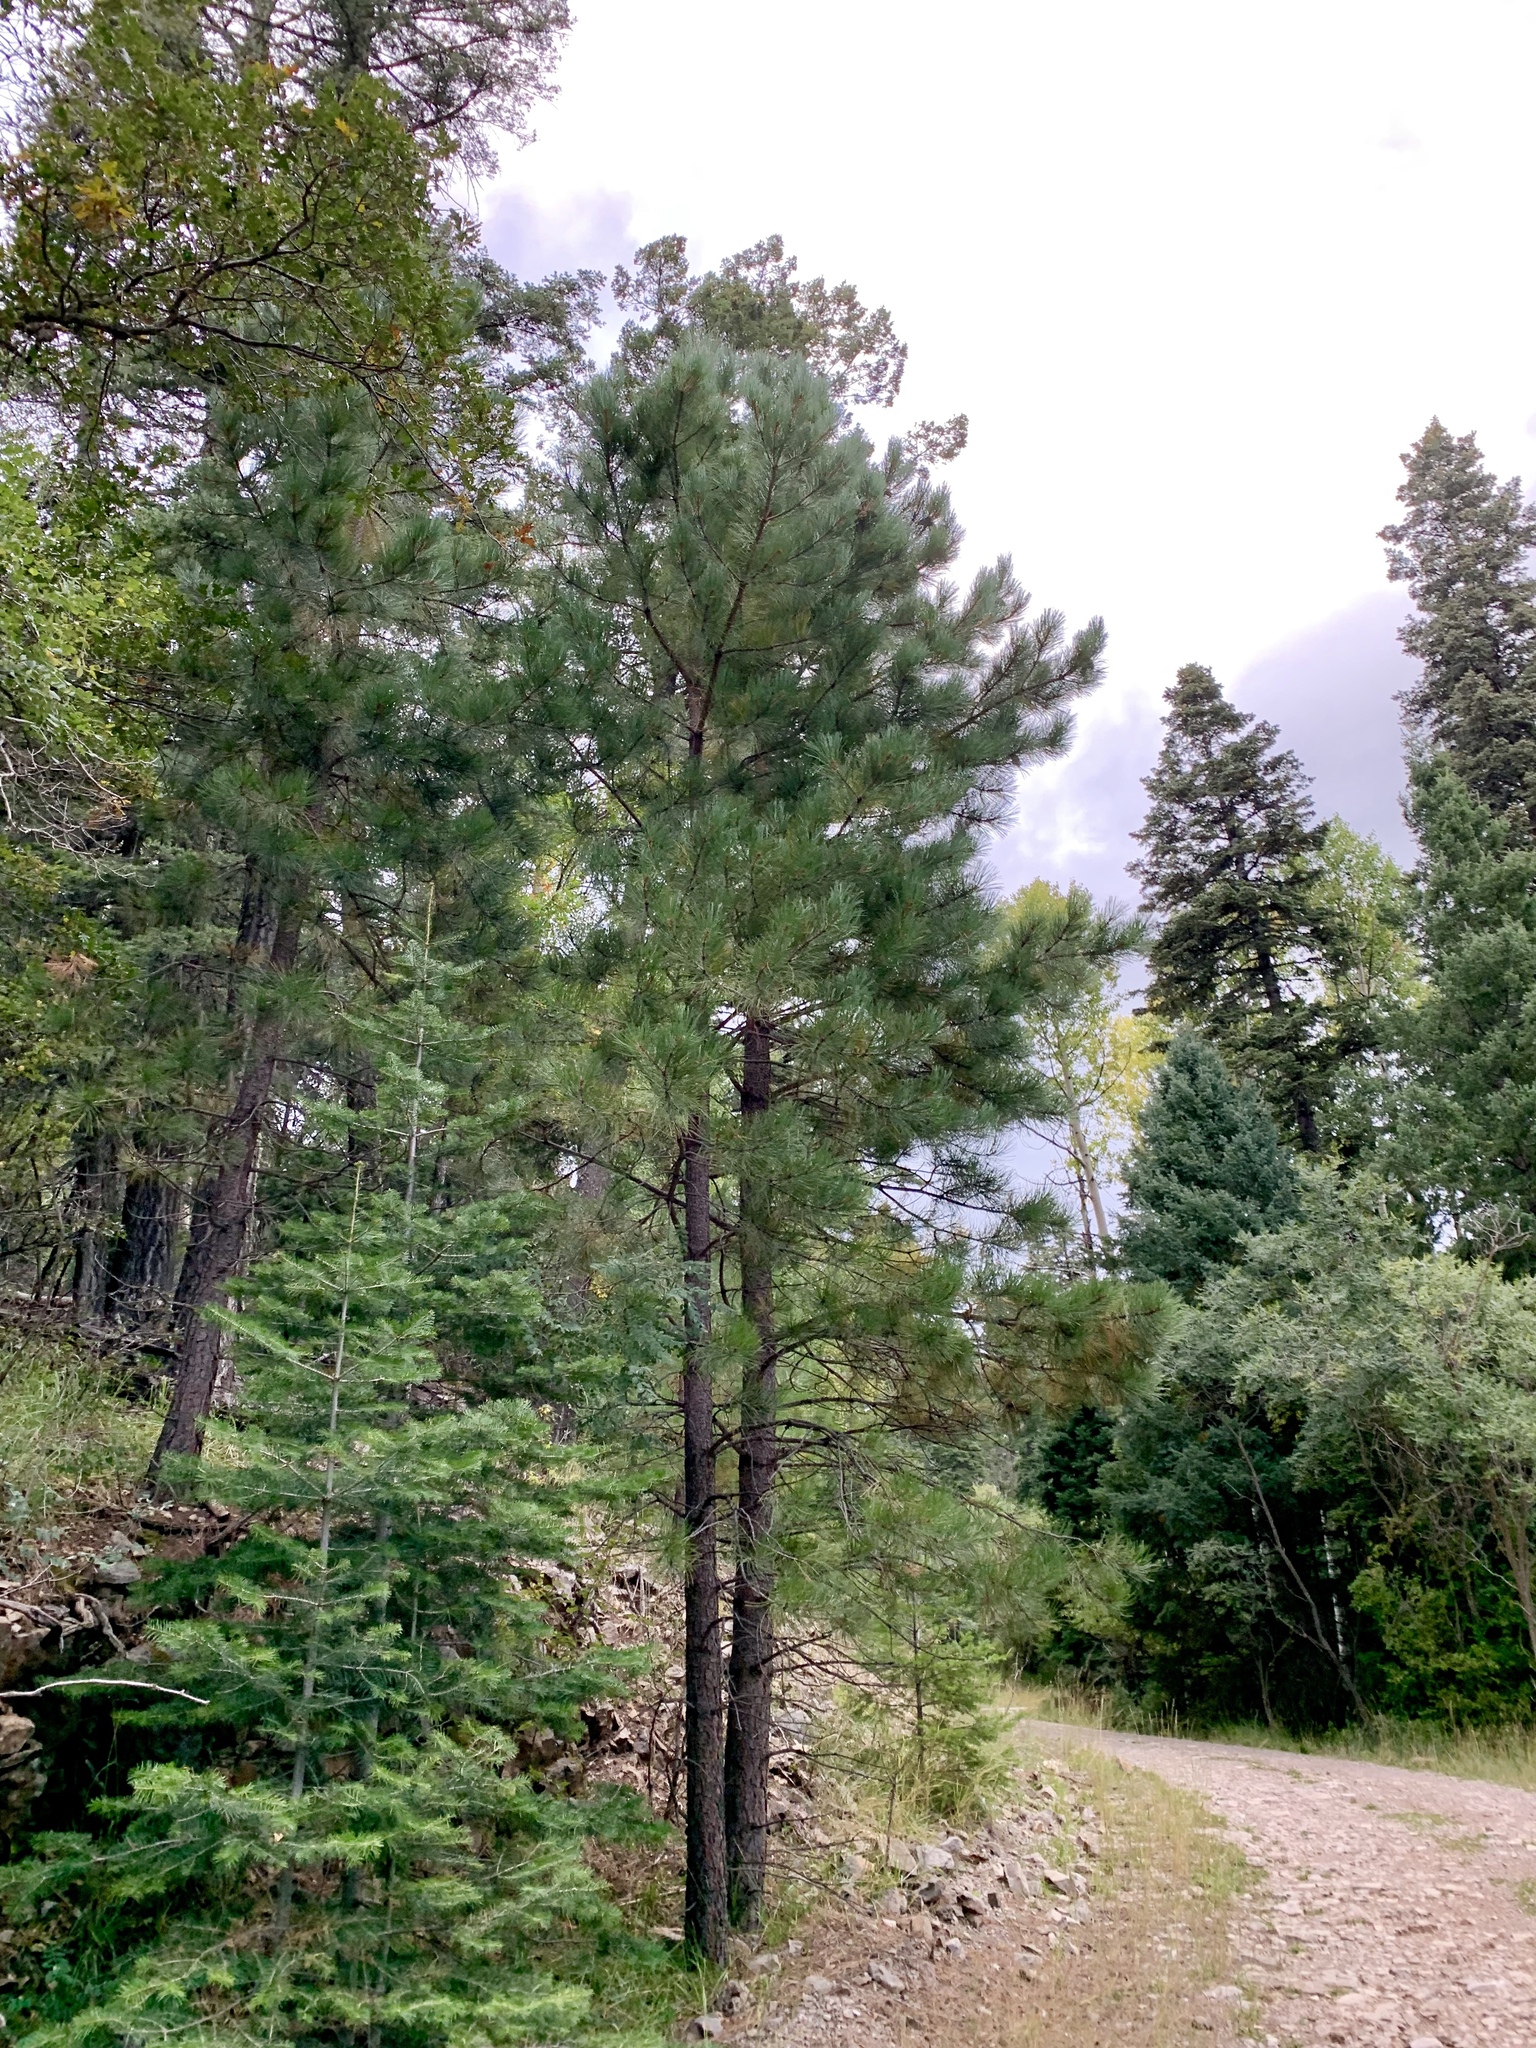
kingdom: Plantae
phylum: Tracheophyta
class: Pinopsida
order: Pinales
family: Pinaceae
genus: Pinus
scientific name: Pinus ponderosa
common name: Western yellow-pine
